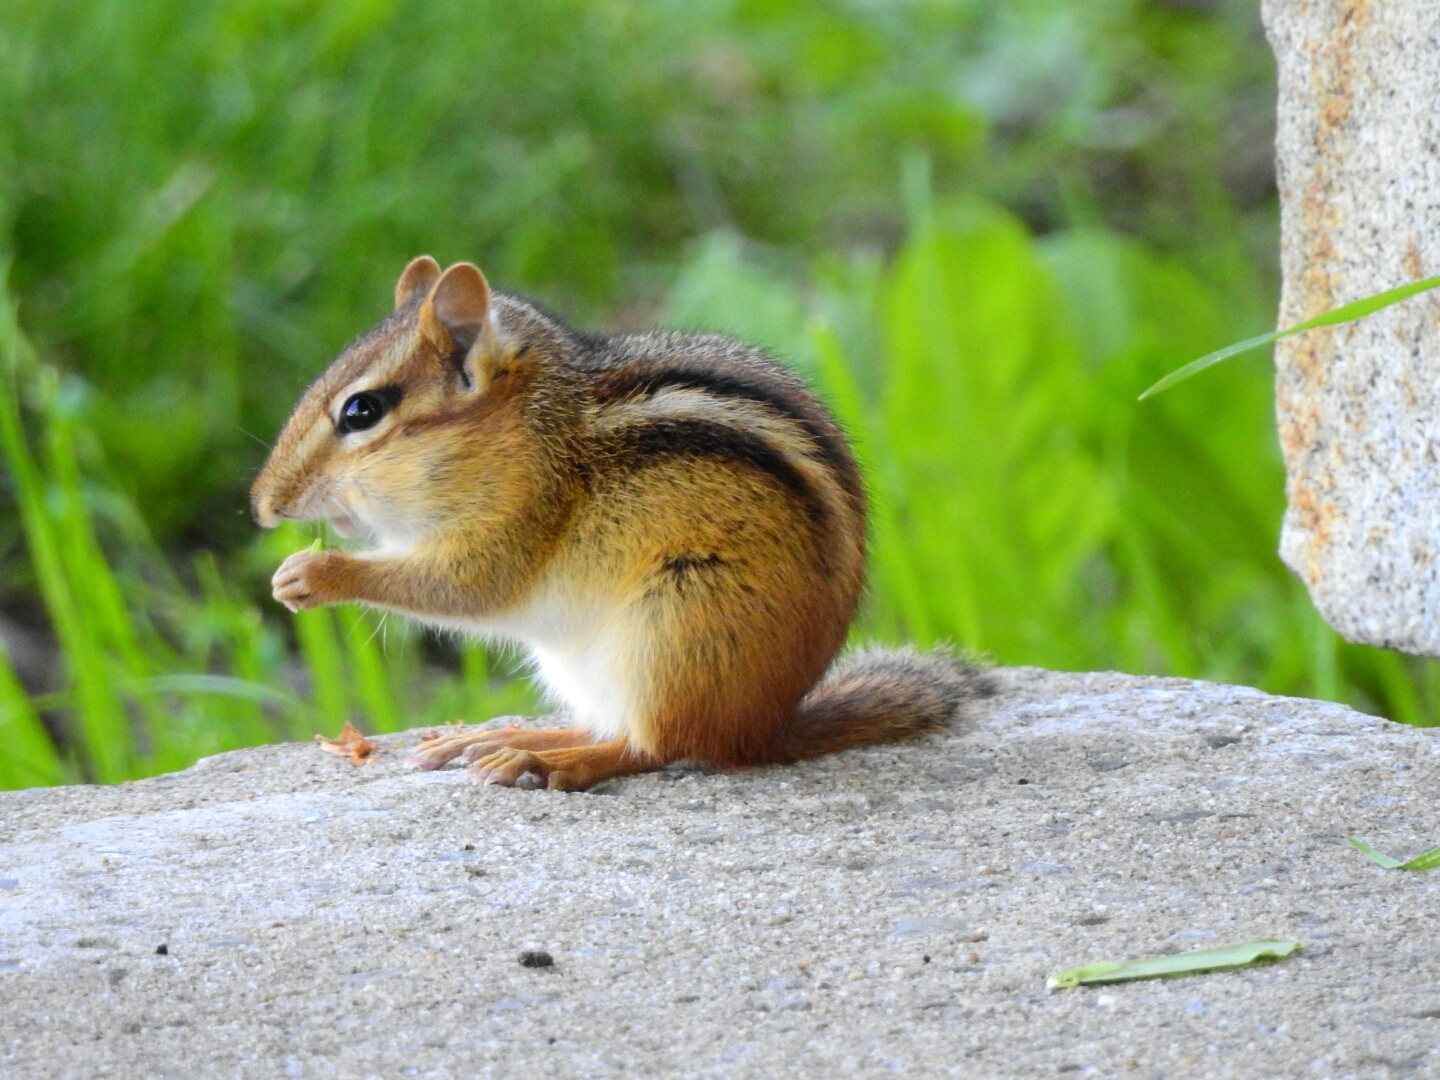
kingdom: Animalia
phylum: Chordata
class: Mammalia
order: Rodentia
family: Sciuridae
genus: Tamias
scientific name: Tamias striatus
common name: Eastern chipmunk
